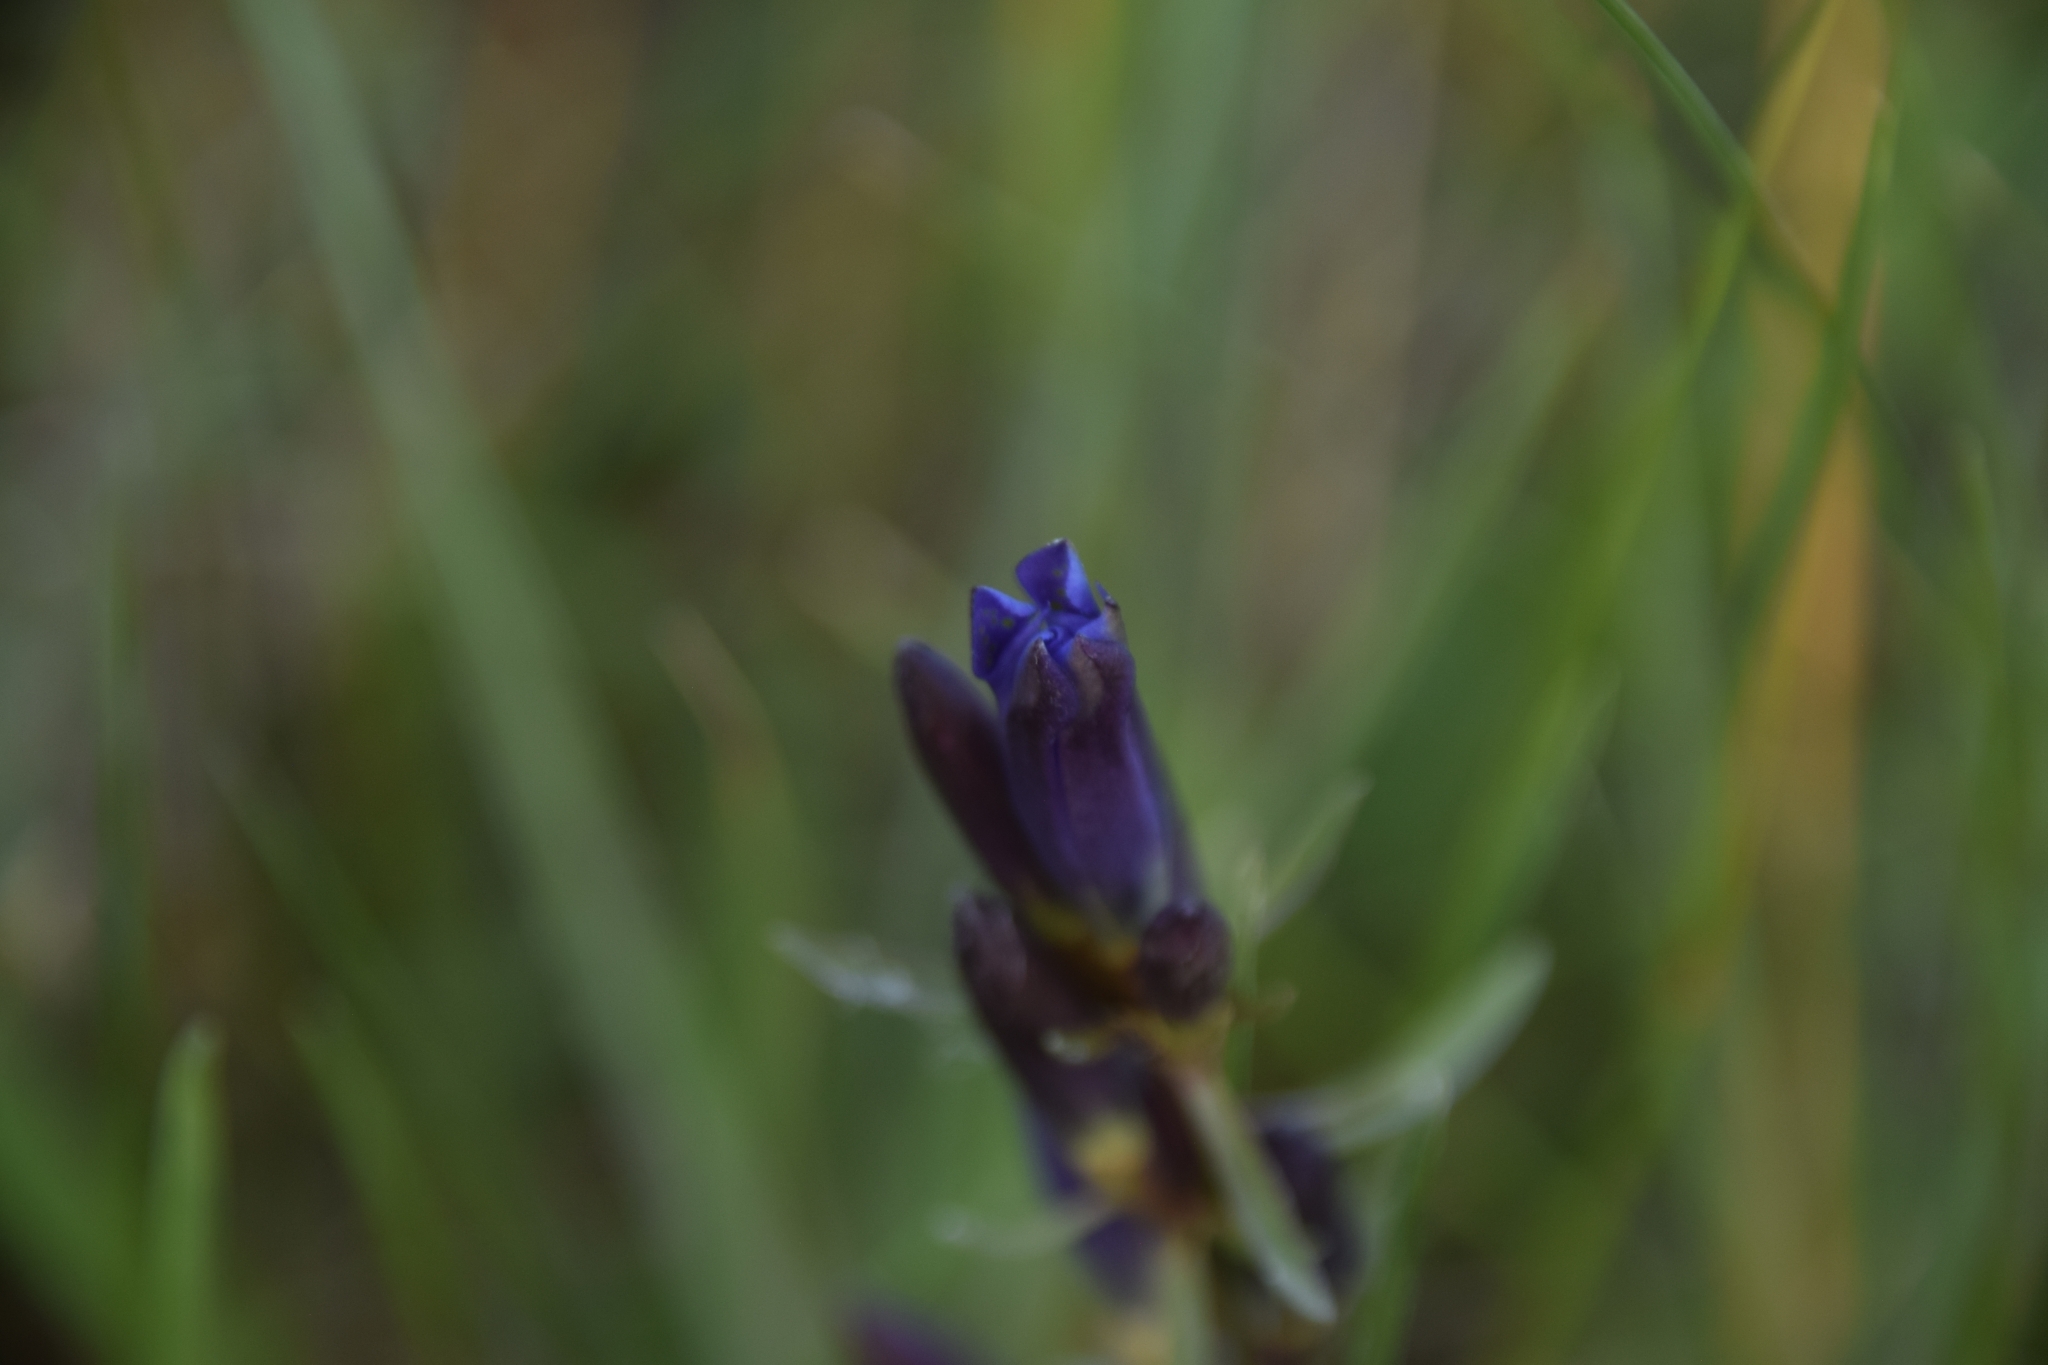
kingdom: Plantae
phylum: Tracheophyta
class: Magnoliopsida
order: Gentianales
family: Gentianaceae
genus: Gentiana
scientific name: Gentiana affinis
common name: Rocky mountain gentian
